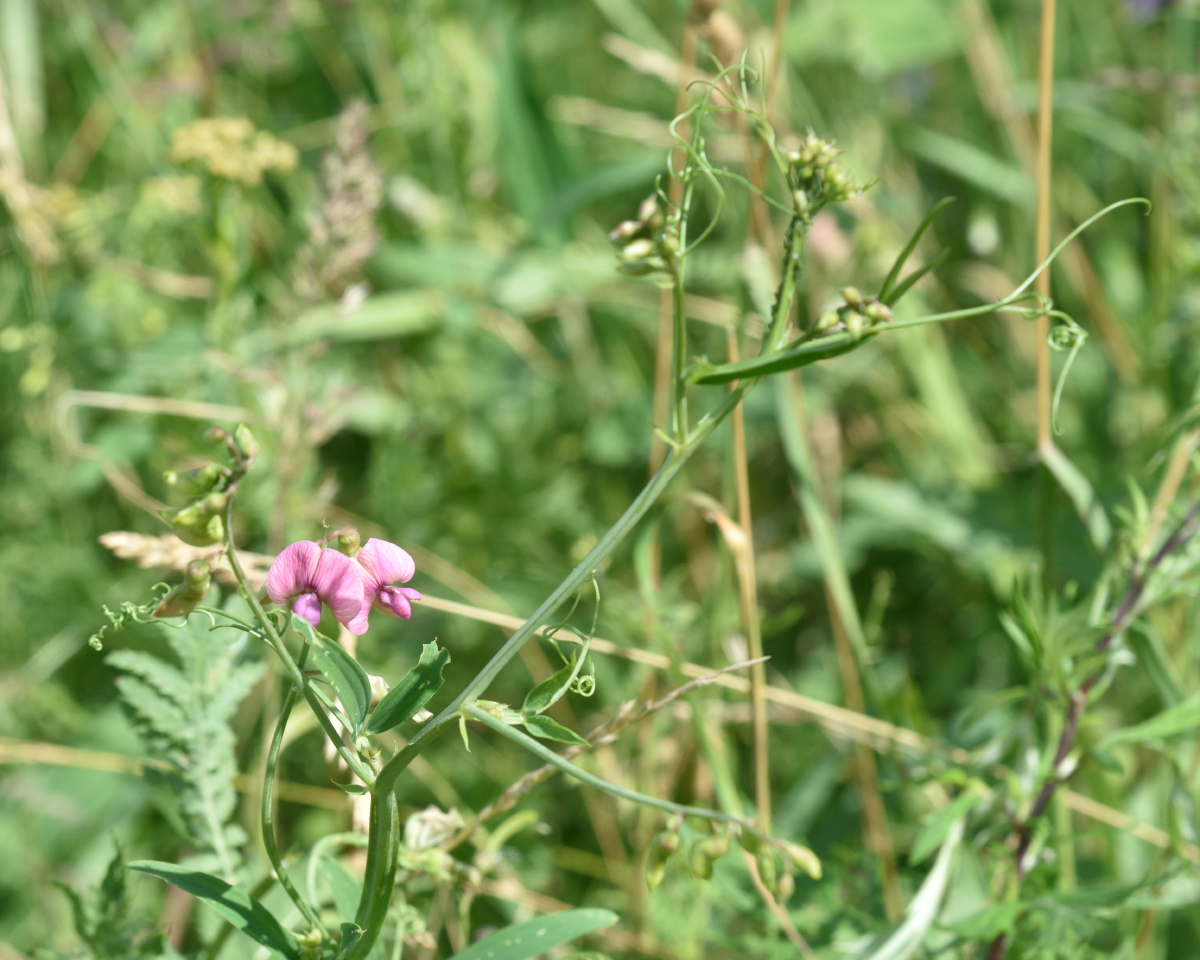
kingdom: Plantae
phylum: Tracheophyta
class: Magnoliopsida
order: Fabales
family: Fabaceae
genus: Lathyrus
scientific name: Lathyrus sylvestris
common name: Flat pea
